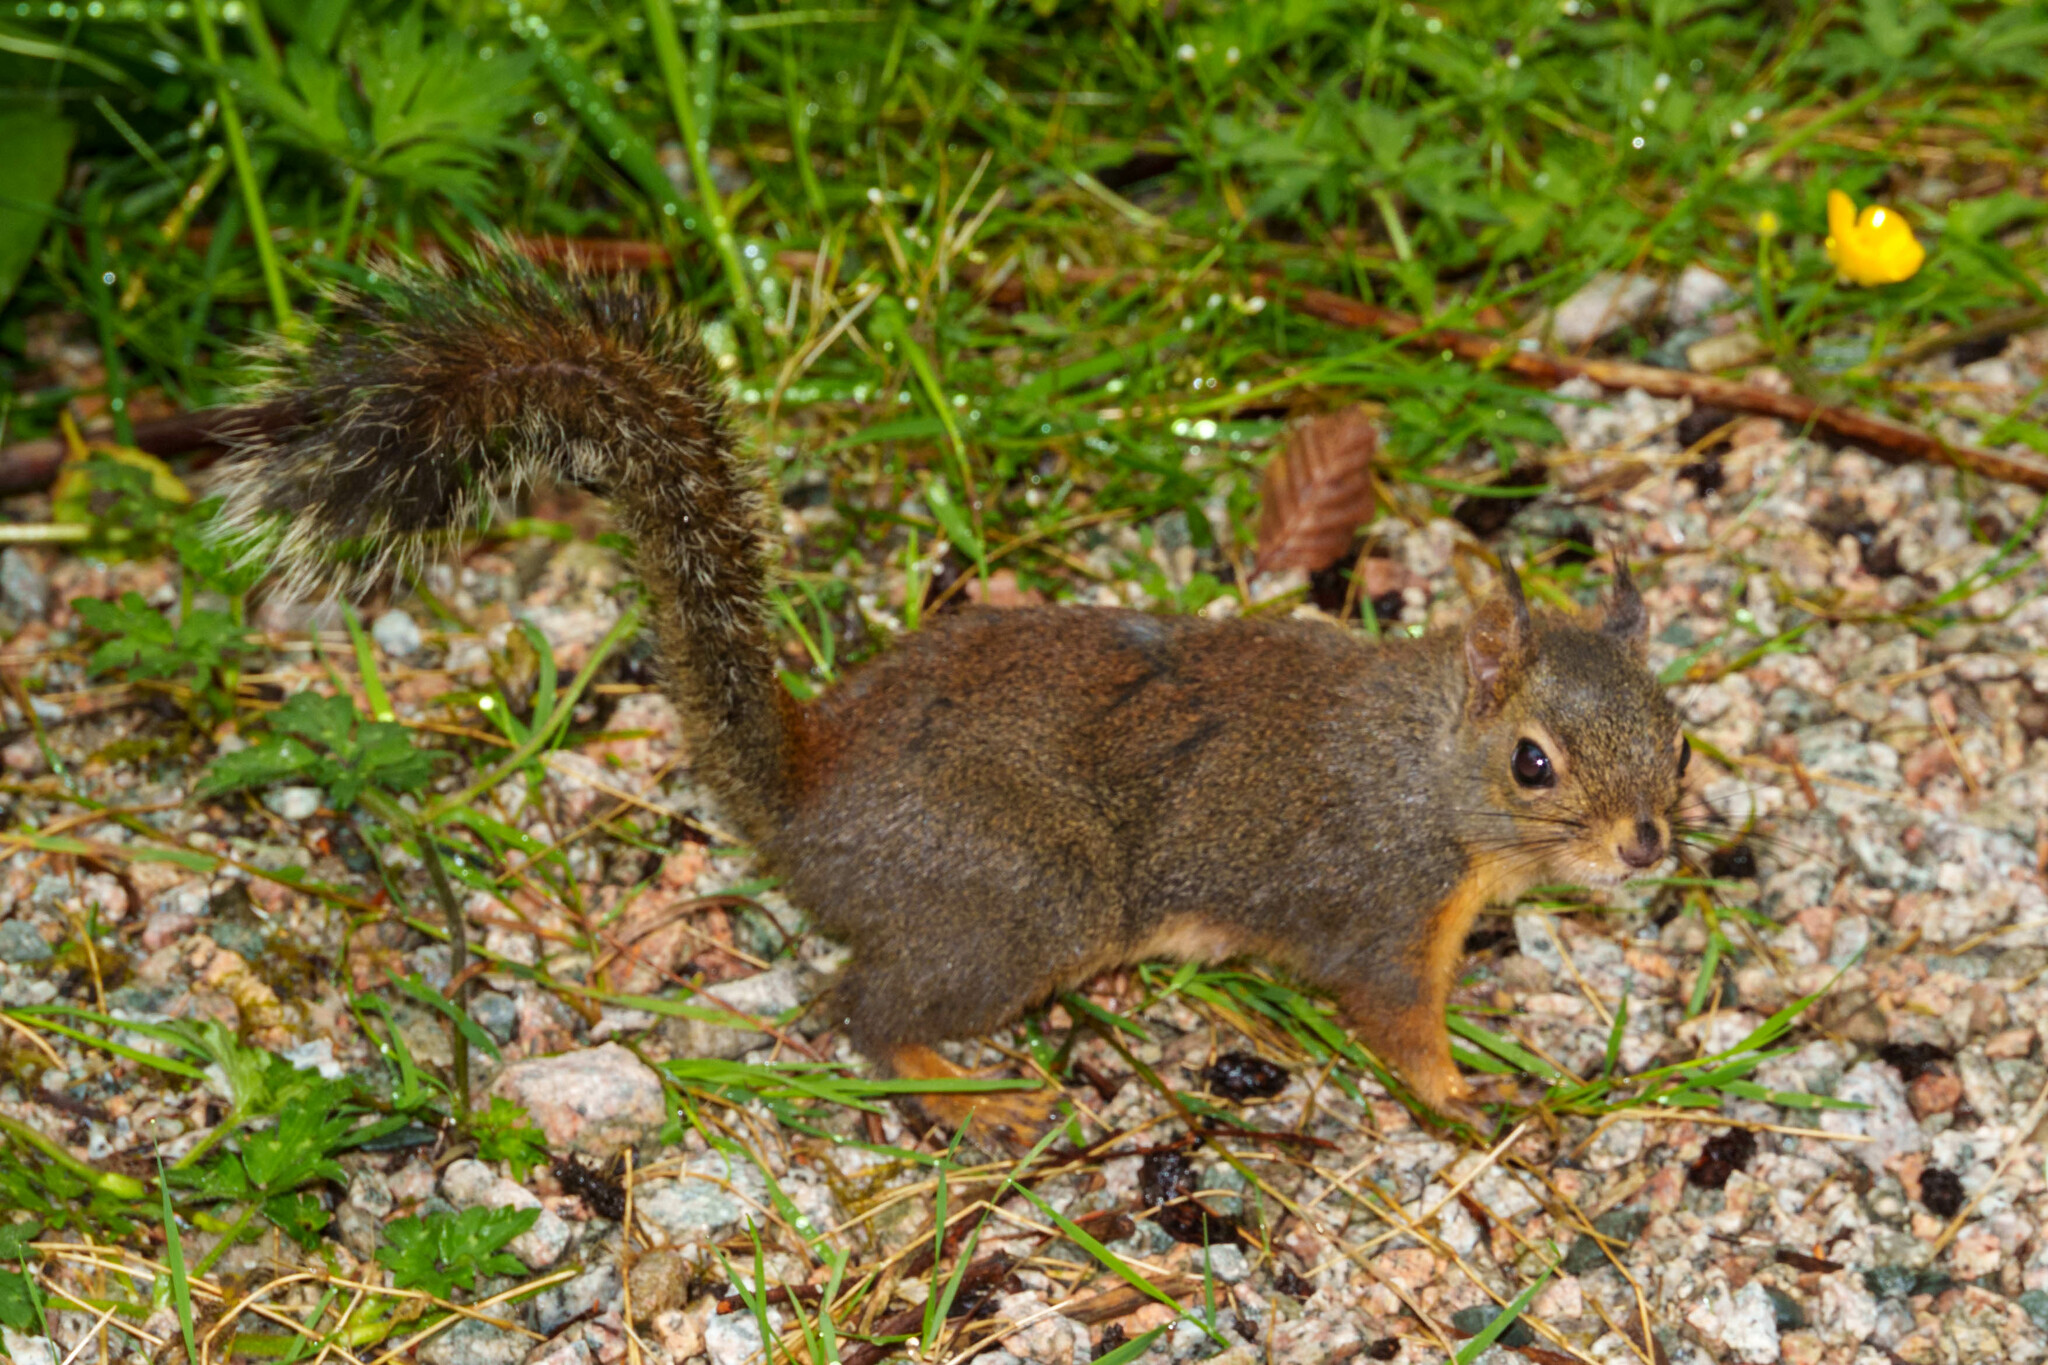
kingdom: Animalia
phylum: Chordata
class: Mammalia
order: Rodentia
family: Sciuridae
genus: Tamiasciurus
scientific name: Tamiasciurus douglasii
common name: Douglas's squirrel
